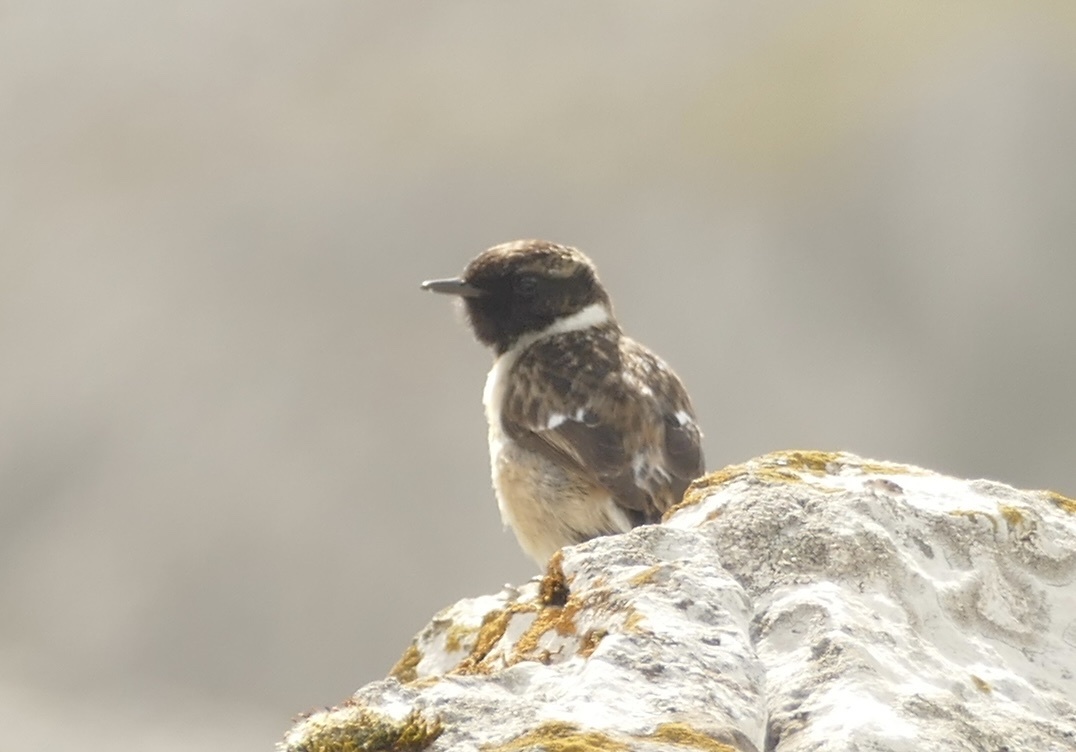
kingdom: Animalia
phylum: Chordata
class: Aves
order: Passeriformes
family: Muscicapidae
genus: Saxicola
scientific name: Saxicola rubicola
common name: European stonechat
